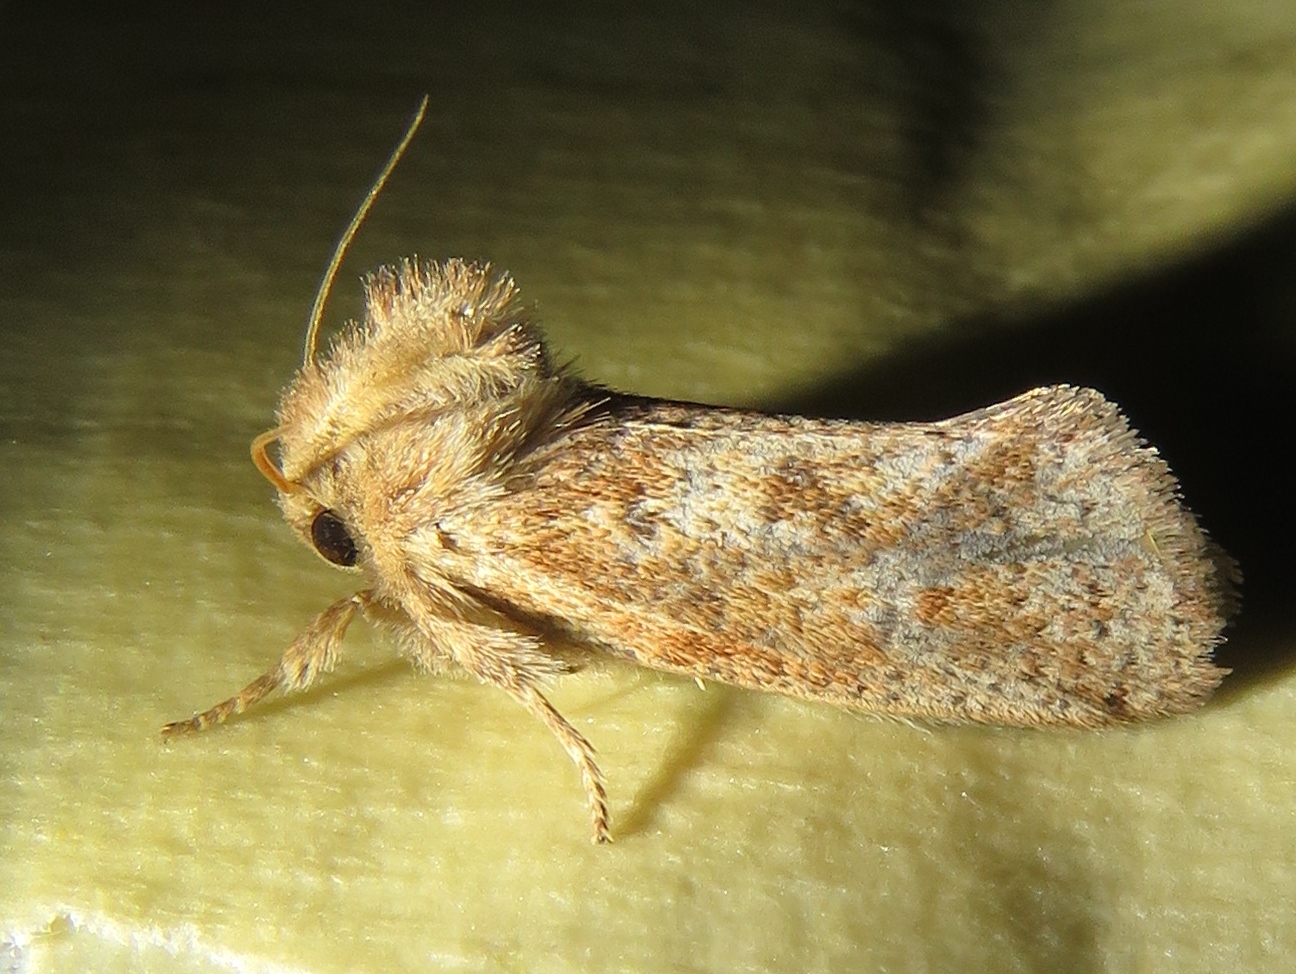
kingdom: Animalia
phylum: Arthropoda
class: Insecta
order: Lepidoptera
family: Tineidae
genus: Acrolophus
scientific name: Acrolophus plumifrontella
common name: Eastern grass tubeworm moth
